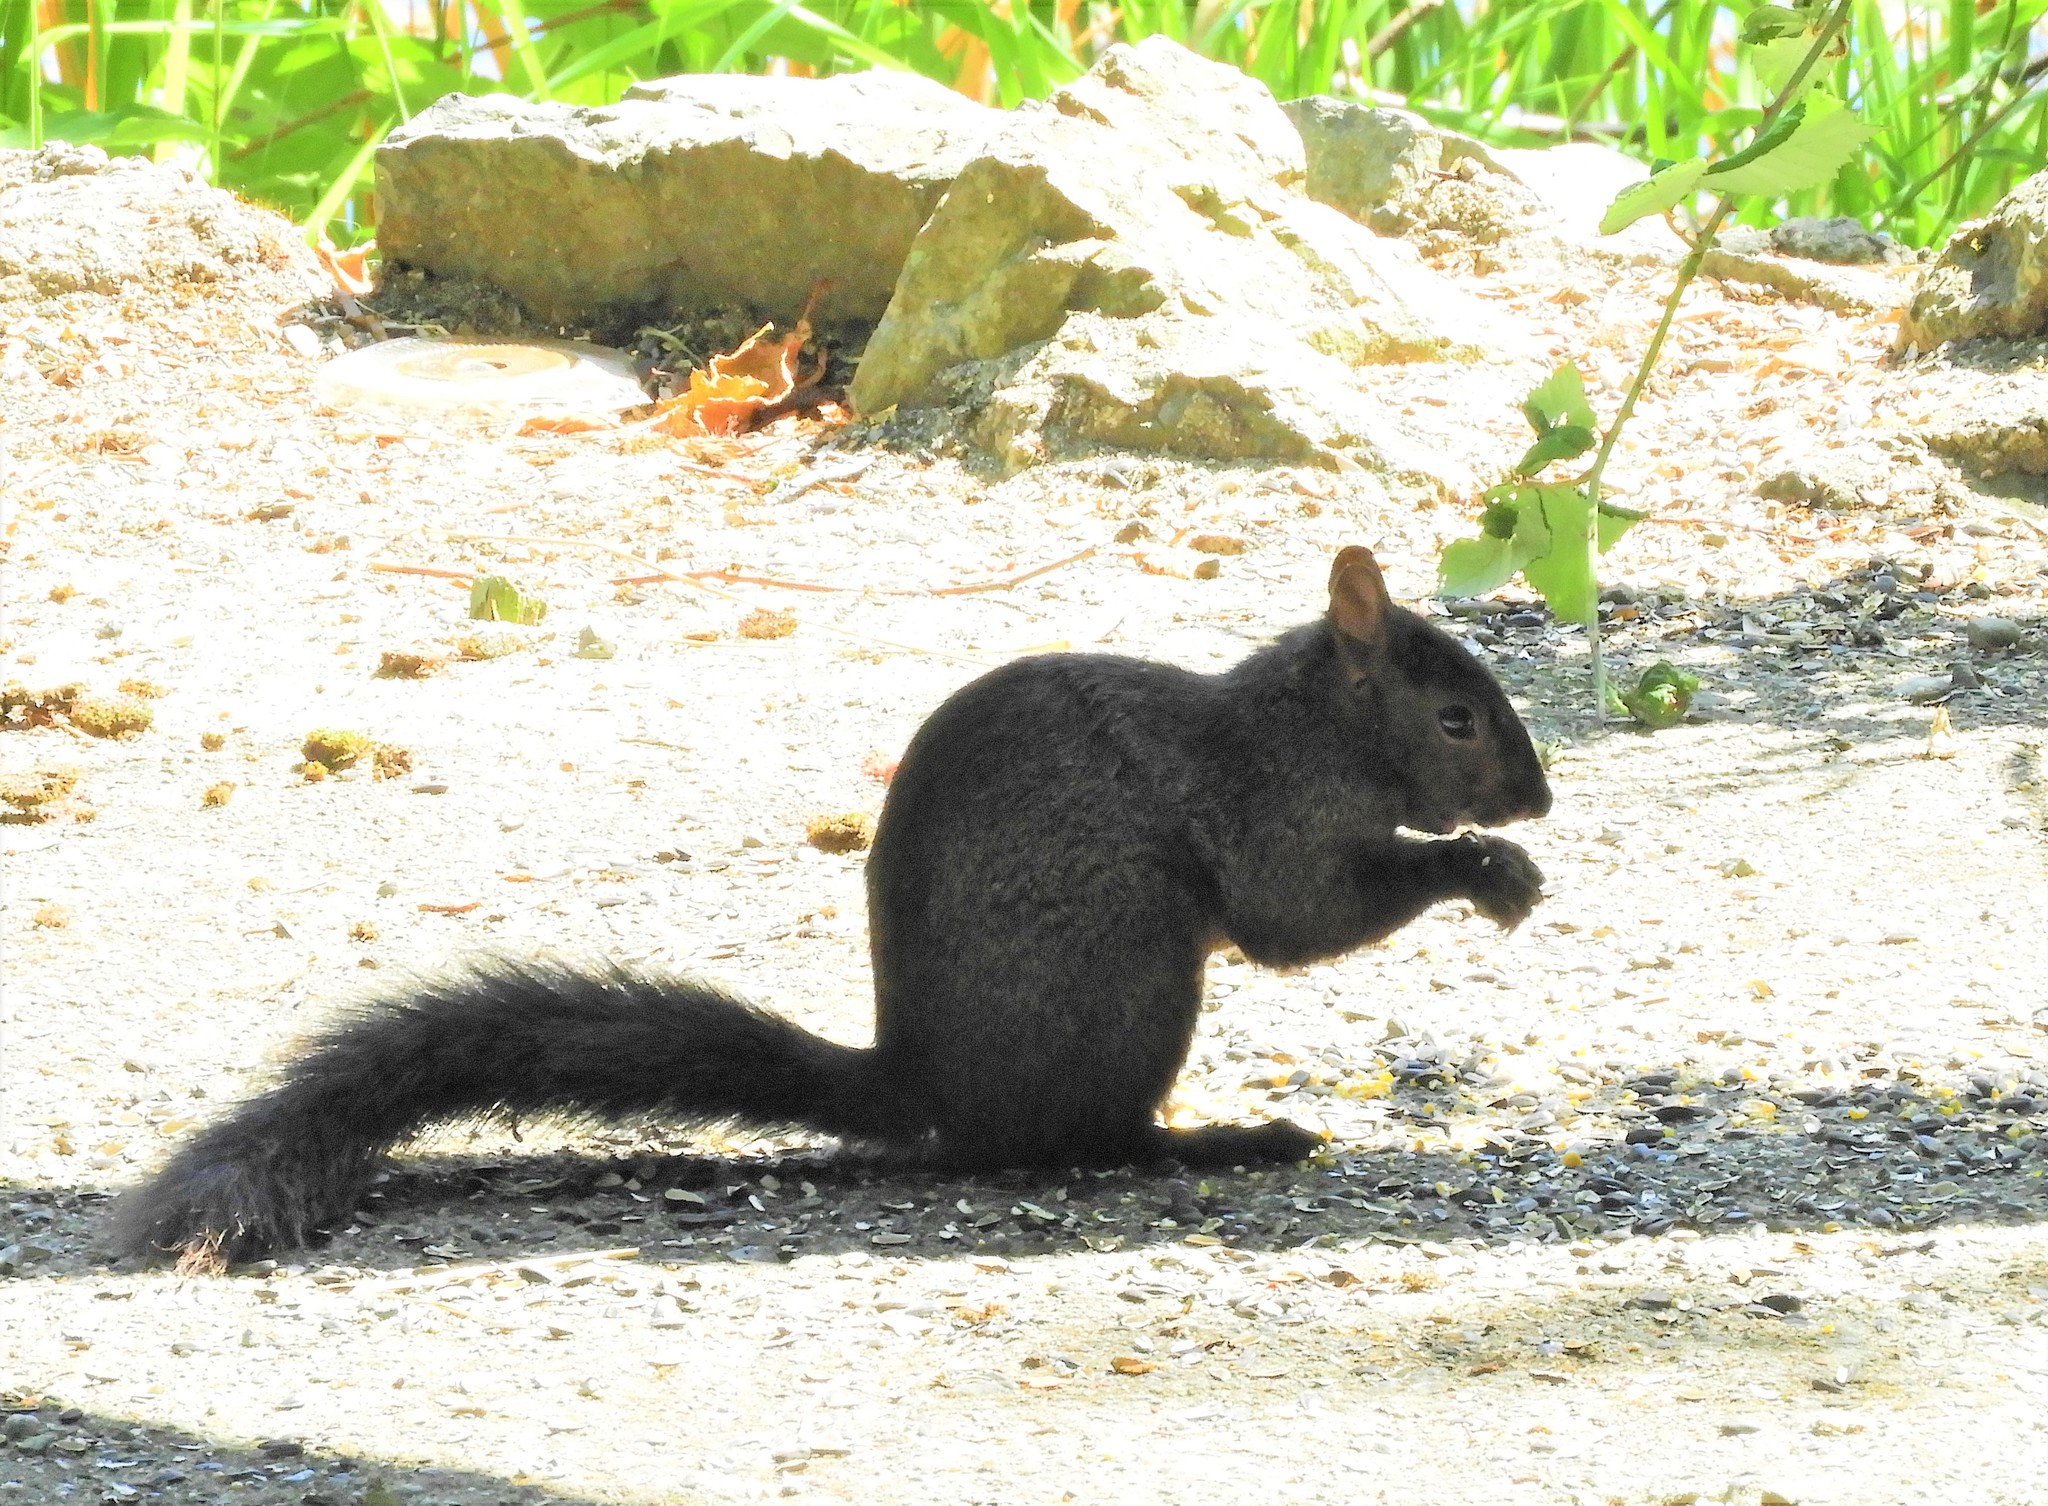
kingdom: Animalia
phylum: Chordata
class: Mammalia
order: Rodentia
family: Sciuridae
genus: Sciurus
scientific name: Sciurus carolinensis
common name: Eastern gray squirrel
